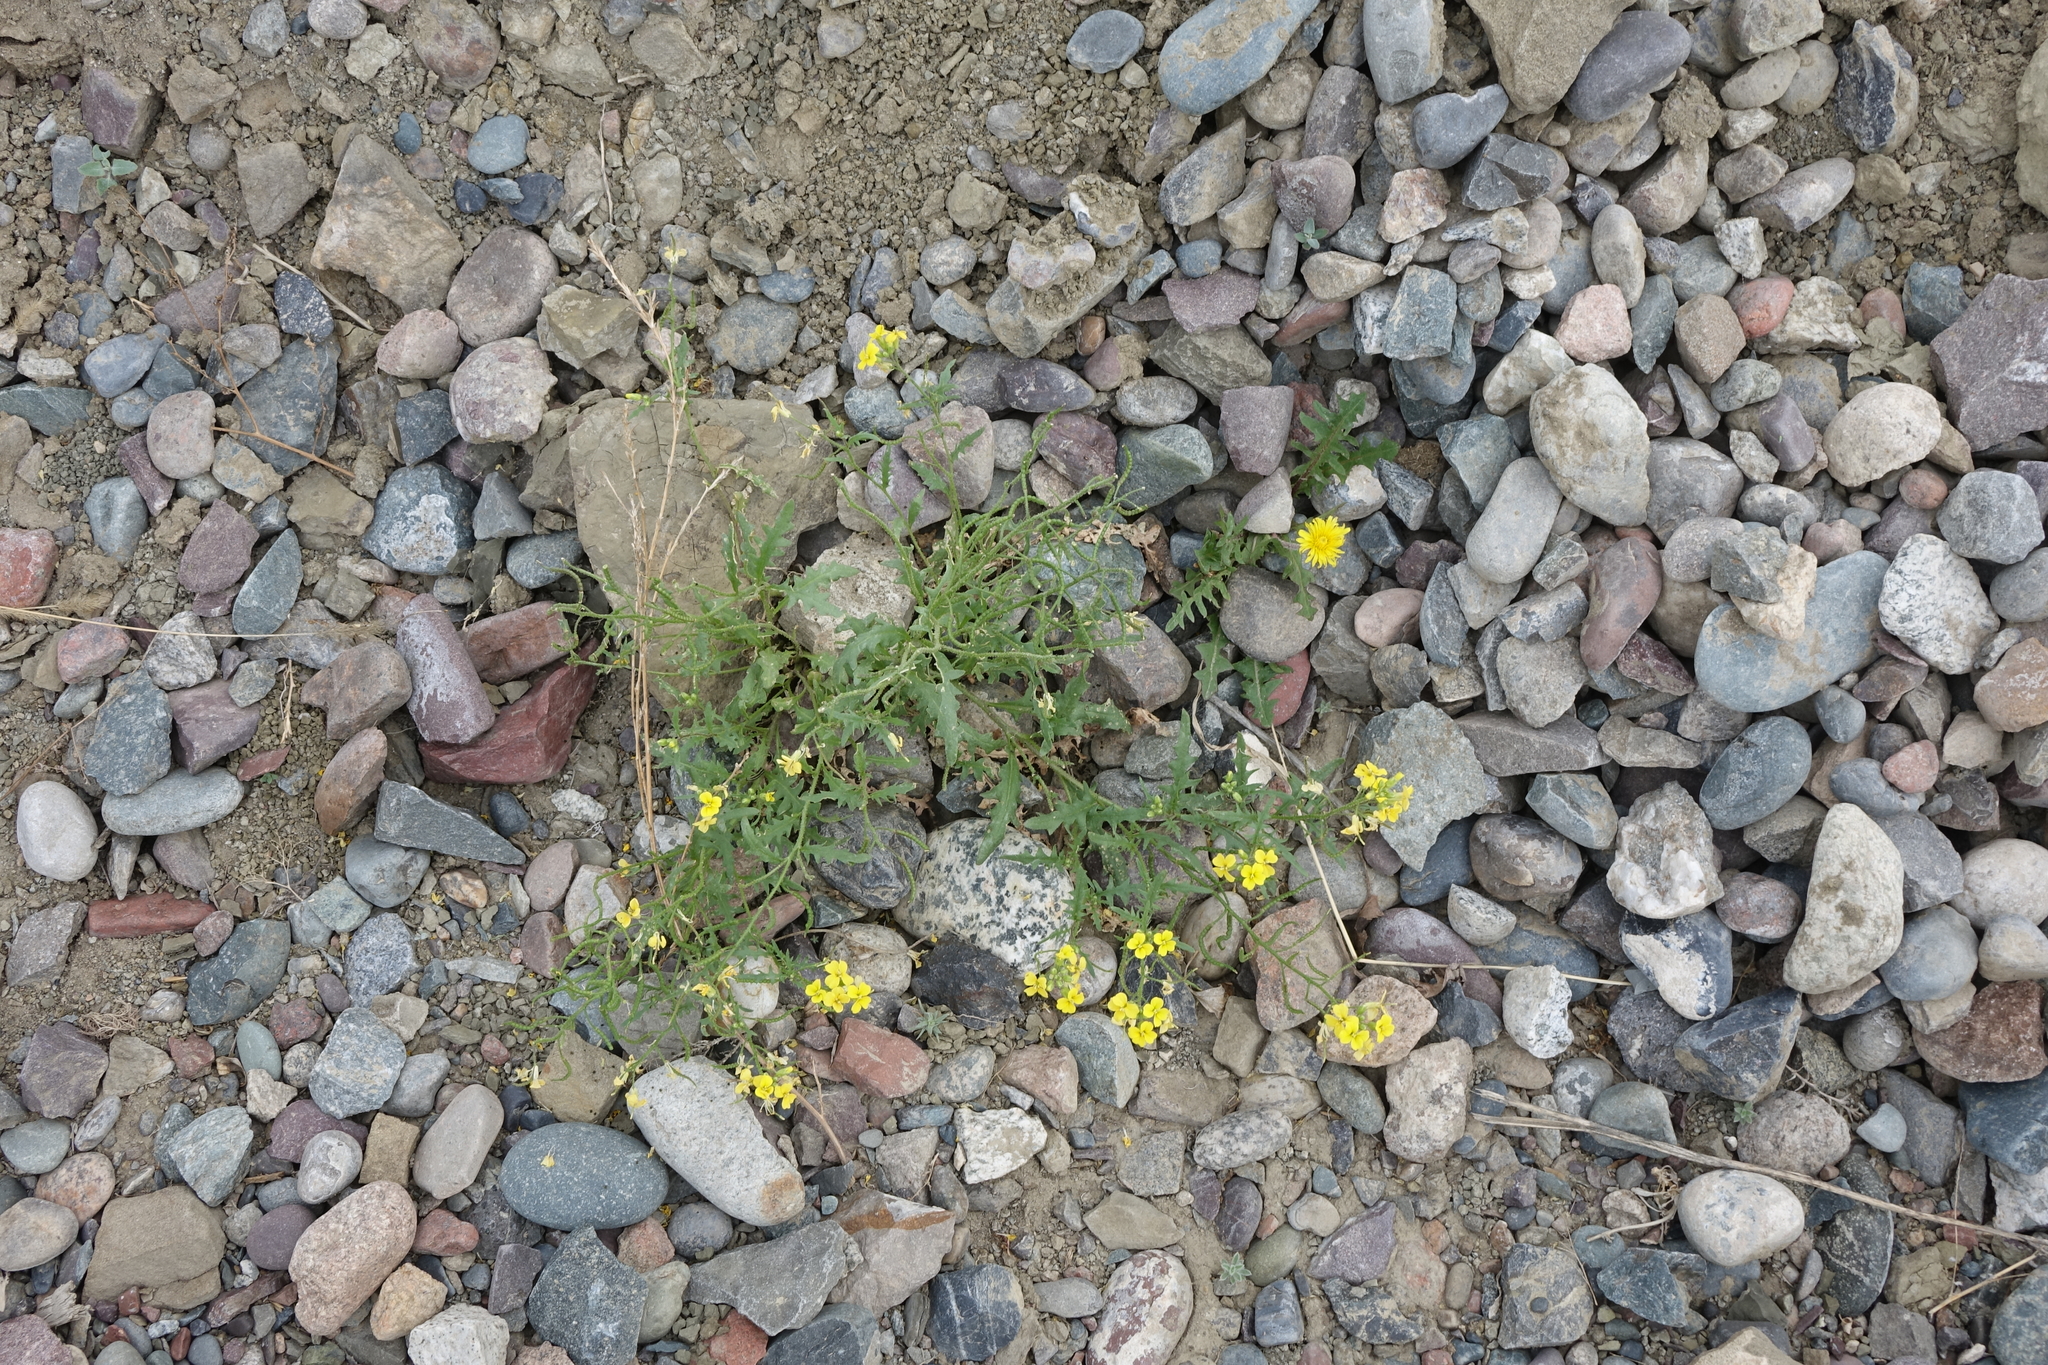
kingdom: Plantae
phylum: Tracheophyta
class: Magnoliopsida
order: Brassicales
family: Brassicaceae
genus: Chorispora
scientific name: Chorispora sibirica
